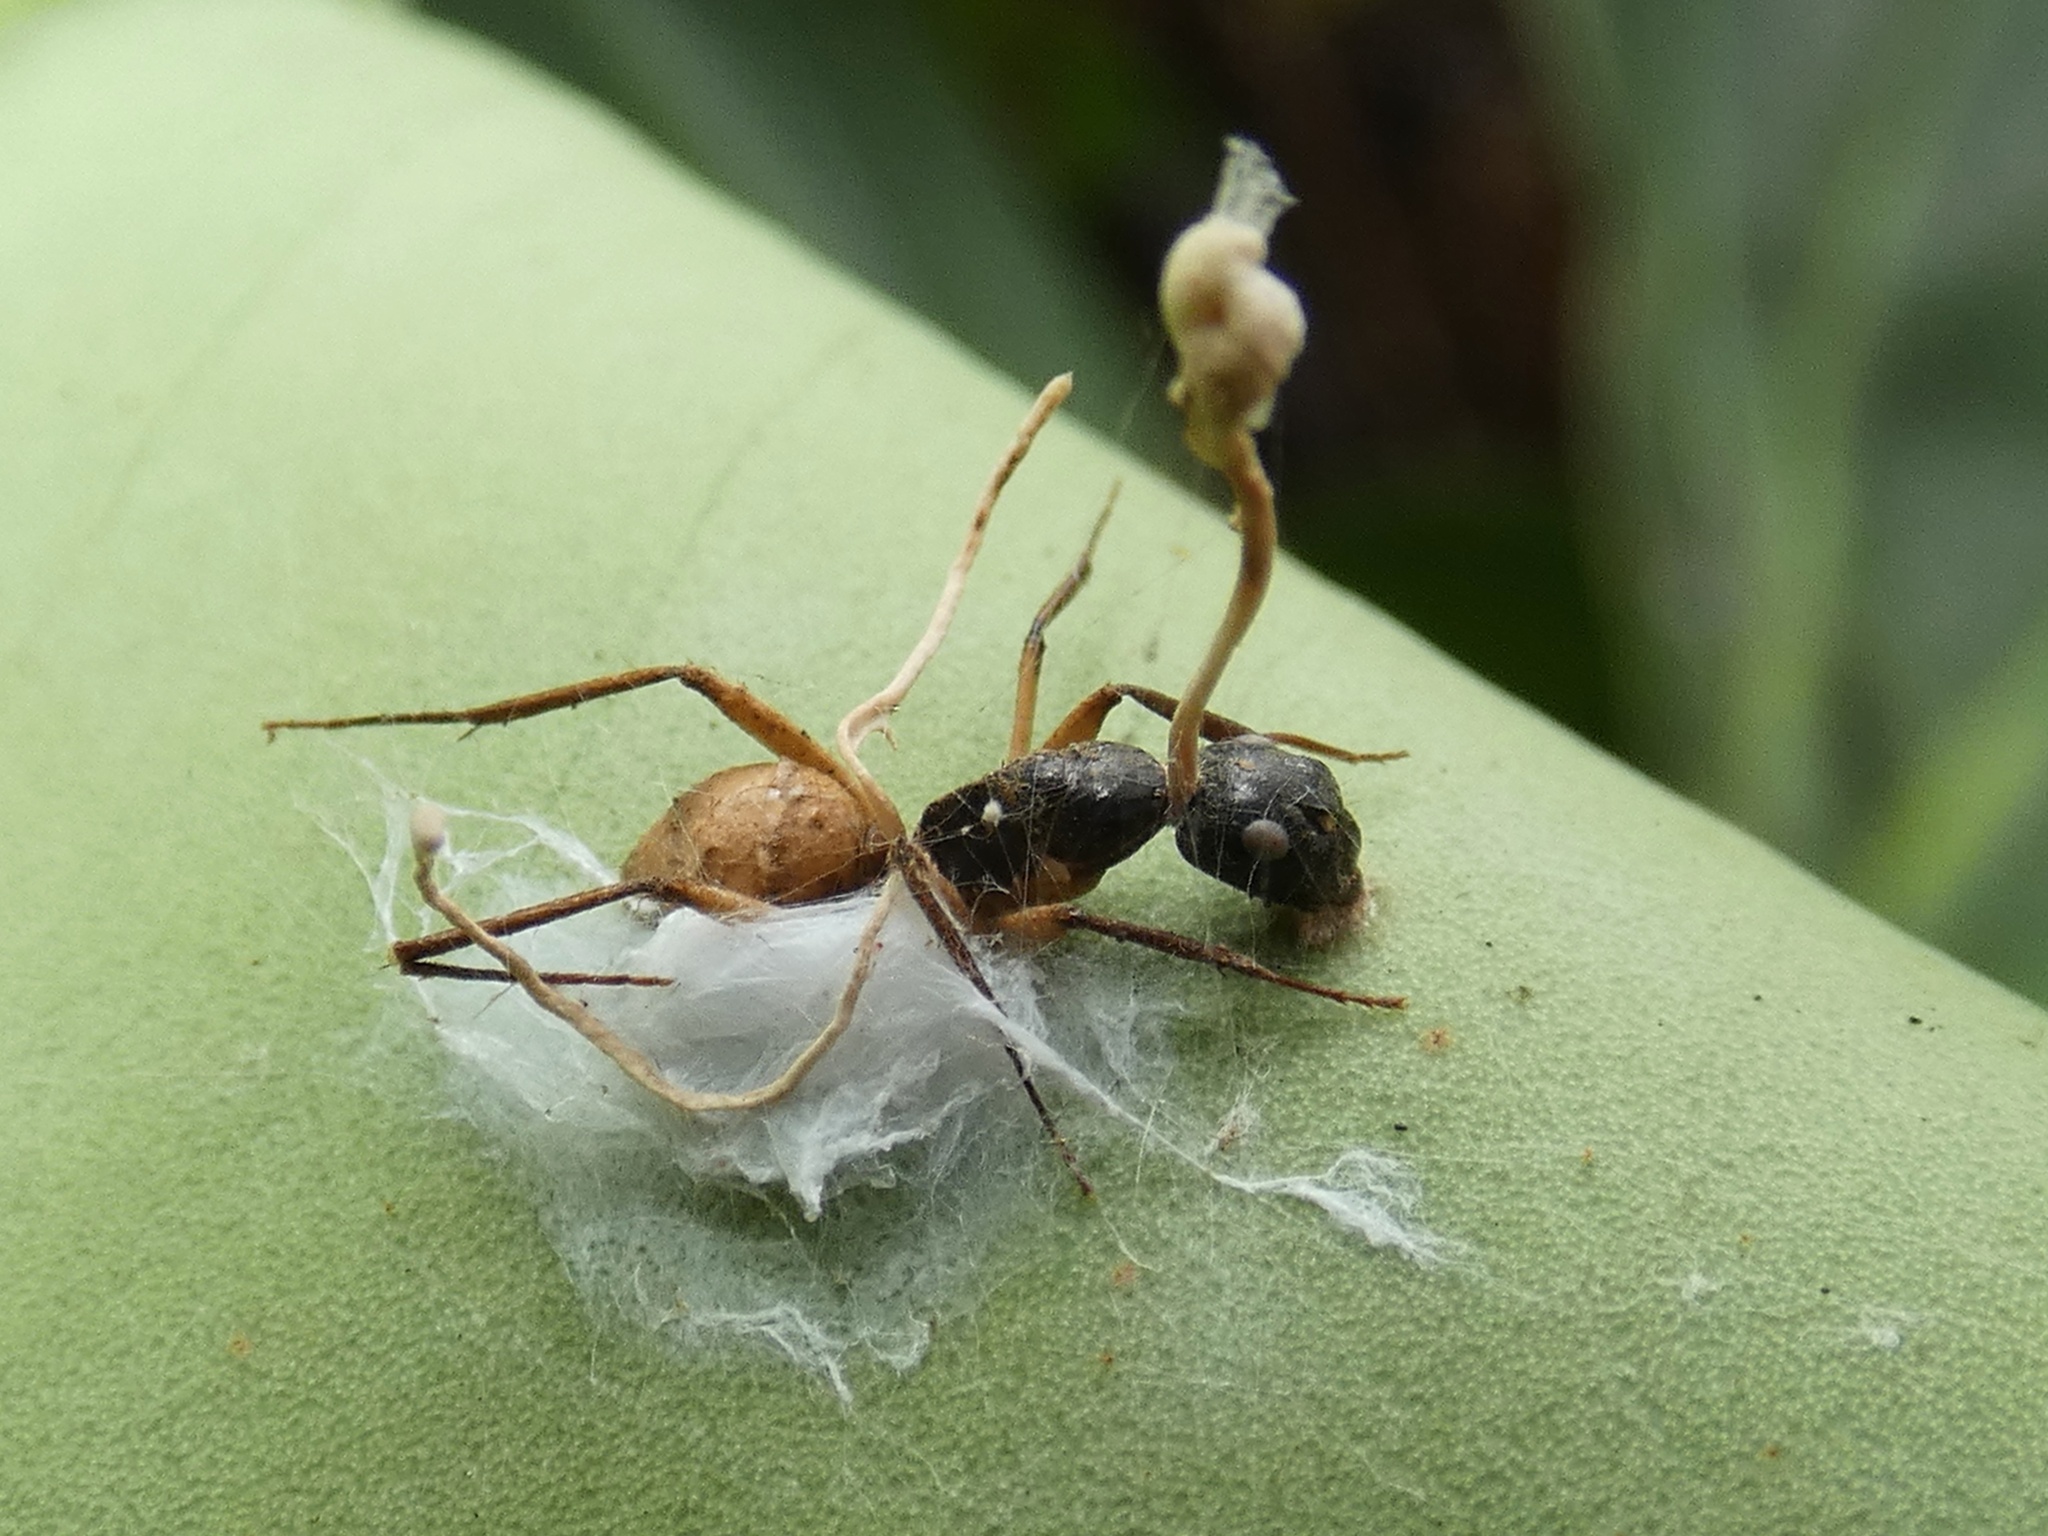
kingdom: Fungi
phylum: Ascomycota
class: Sordariomycetes
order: Hypocreales
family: Ophiocordycipitaceae
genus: Ophiocordyceps
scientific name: Ophiocordyceps
